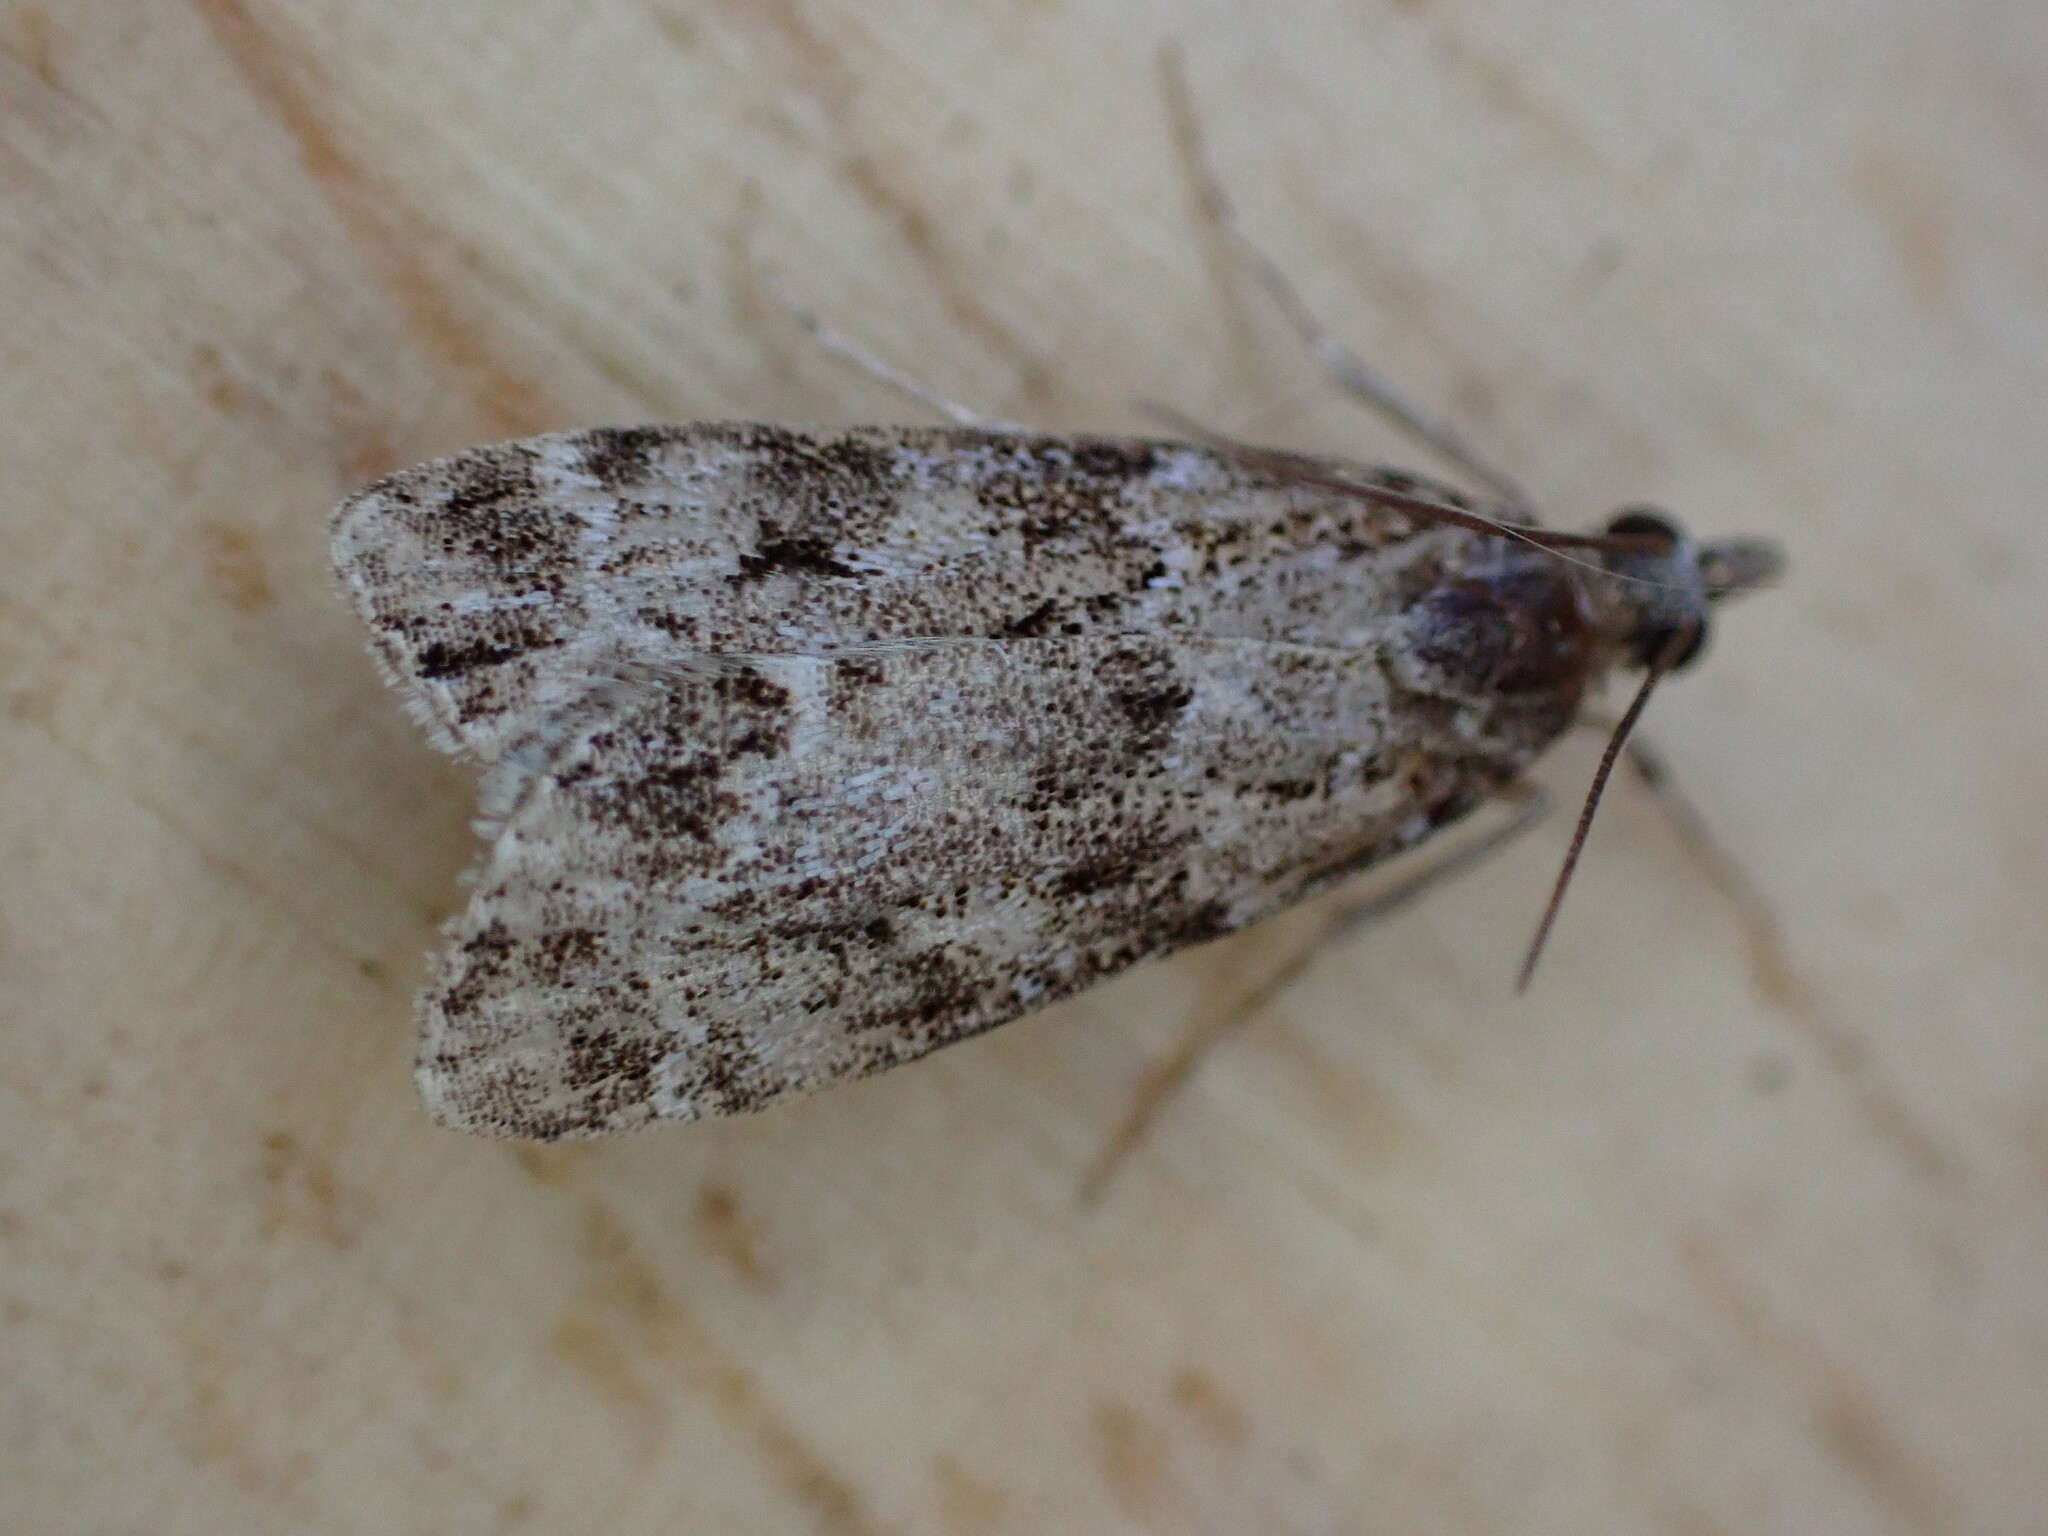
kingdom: Animalia
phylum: Arthropoda
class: Insecta
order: Lepidoptera
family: Crambidae
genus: Eudonia
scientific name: Eudonia mercurella
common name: Small grey
